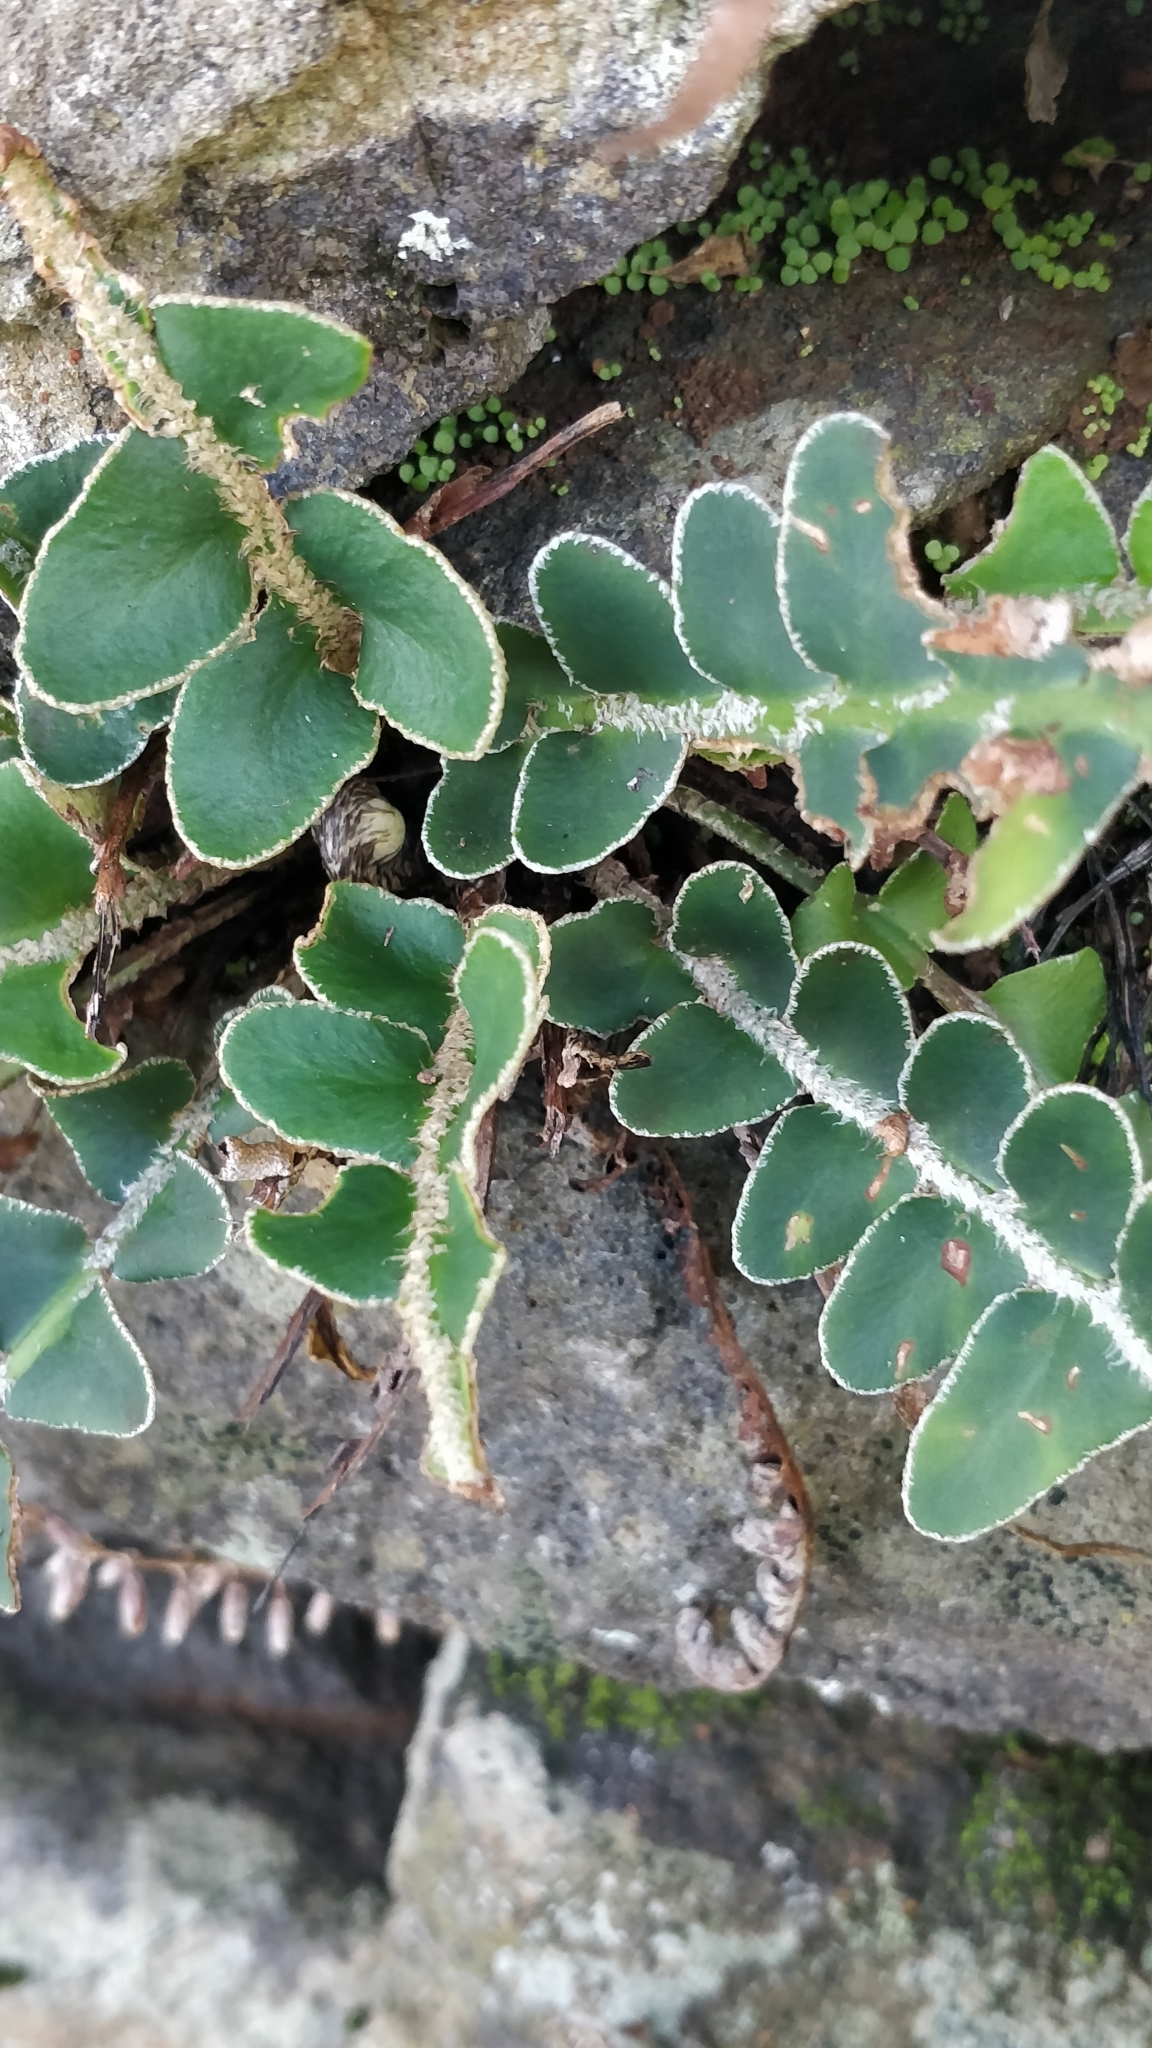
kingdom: Plantae
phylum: Tracheophyta
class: Polypodiopsida
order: Polypodiales
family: Aspleniaceae
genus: Asplenium
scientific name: Asplenium lolegnamense
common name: Madeira rustyback fern
